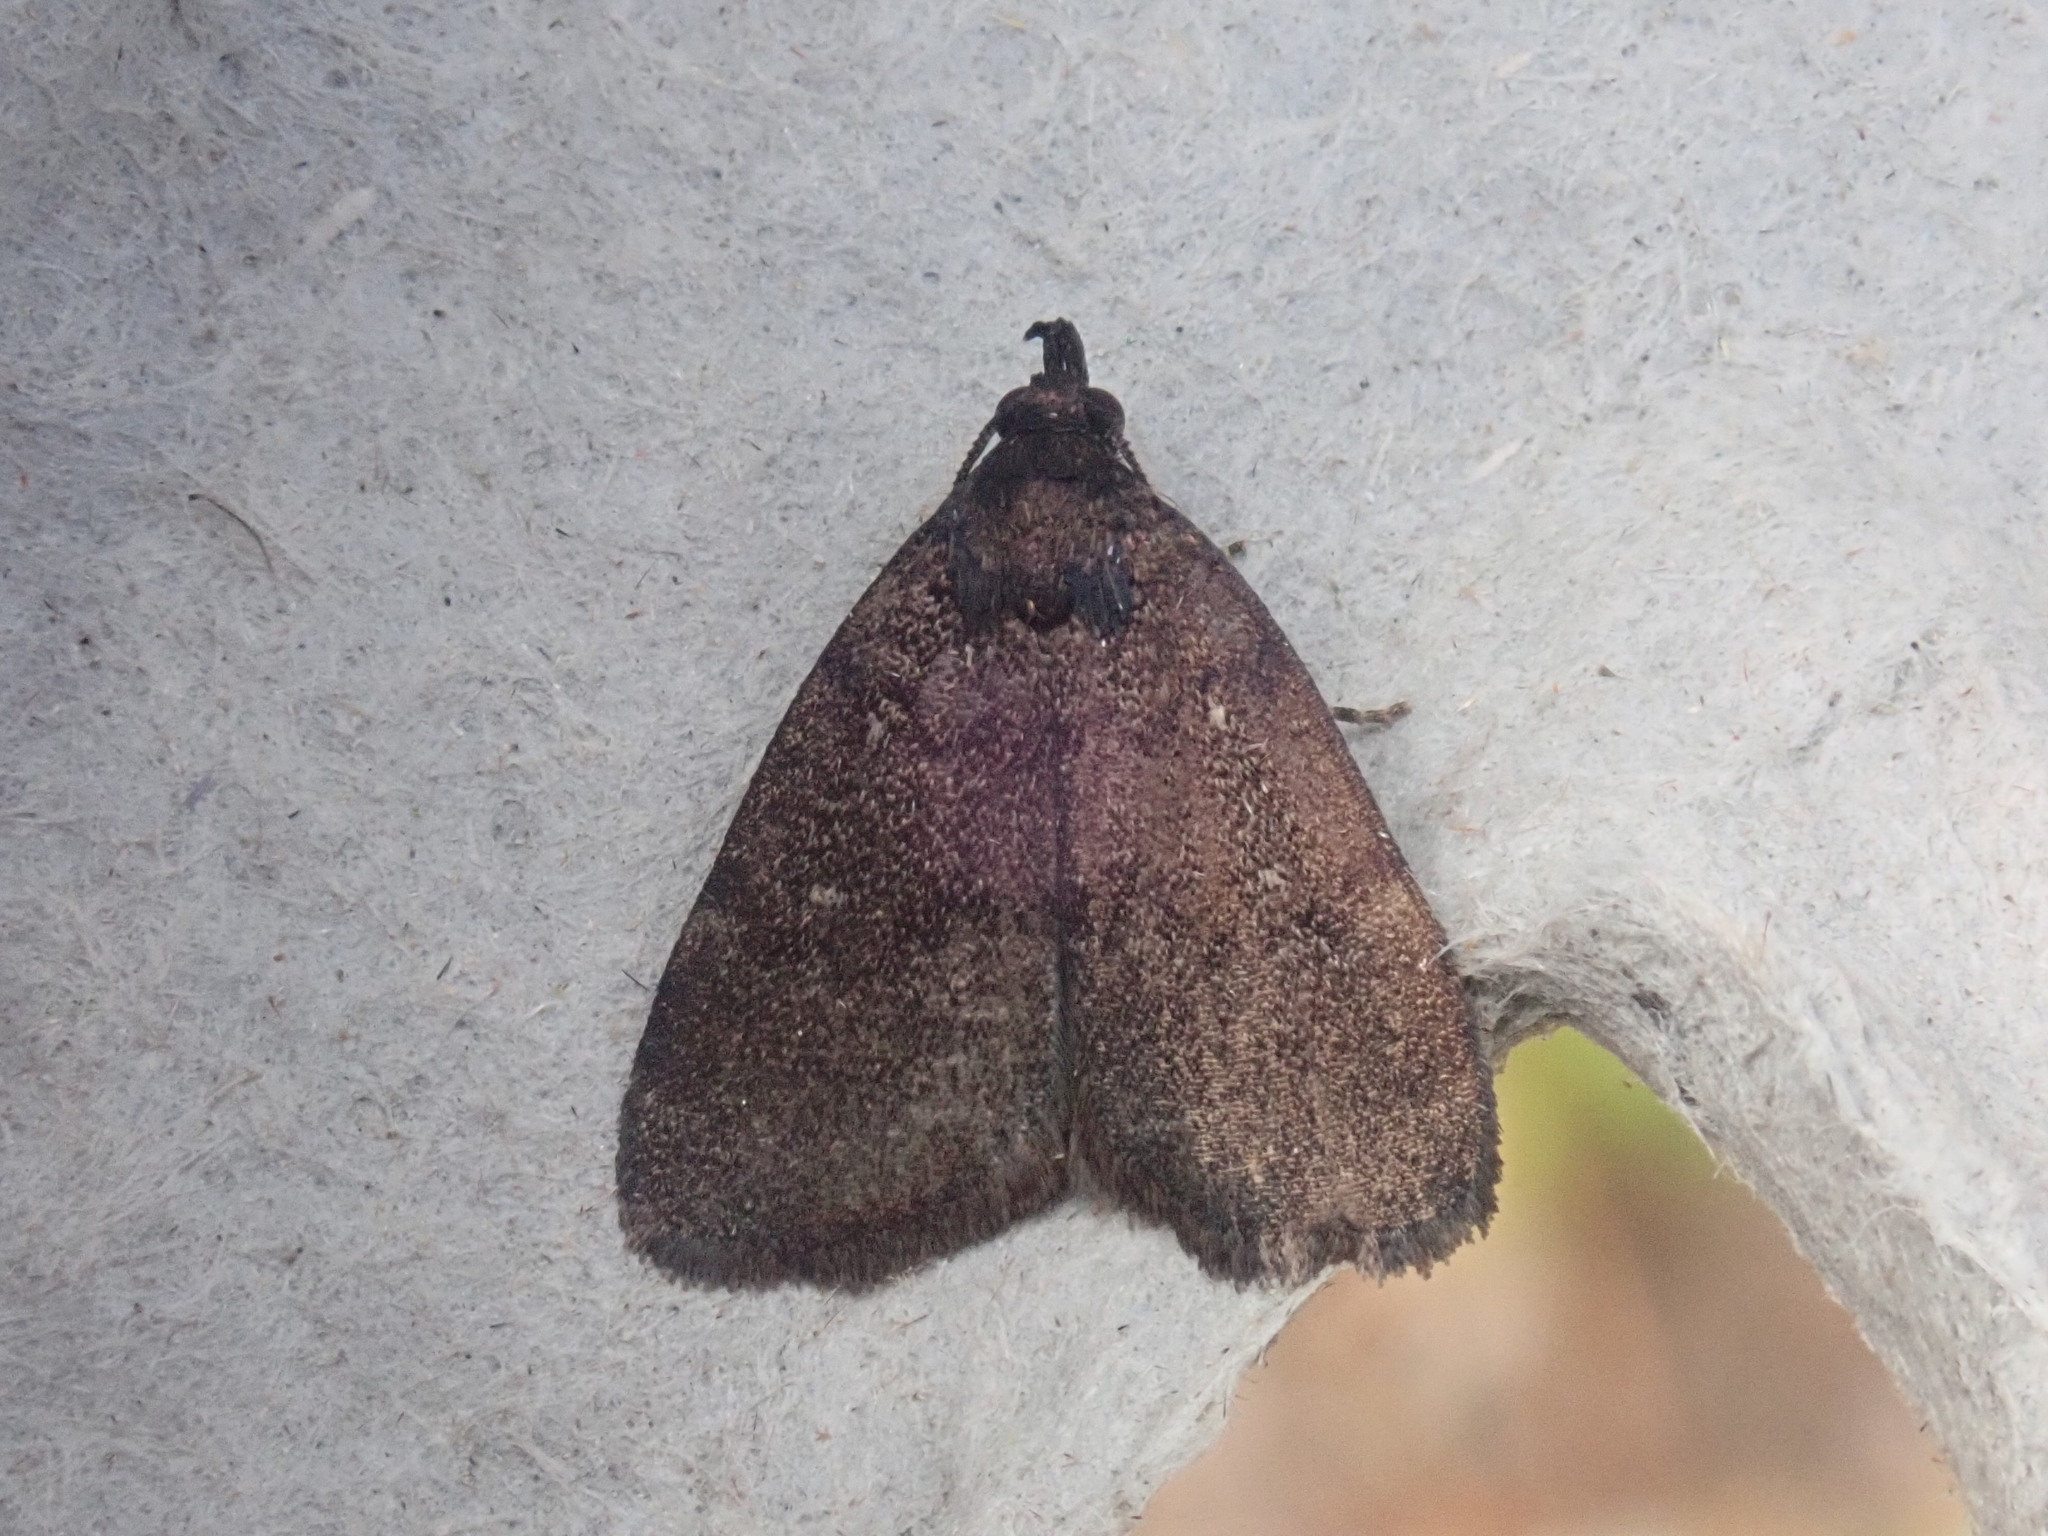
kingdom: Animalia
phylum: Arthropoda
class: Insecta
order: Lepidoptera
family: Erebidae
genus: Idia
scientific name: Idia rotundalis
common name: Rotund idia moth
